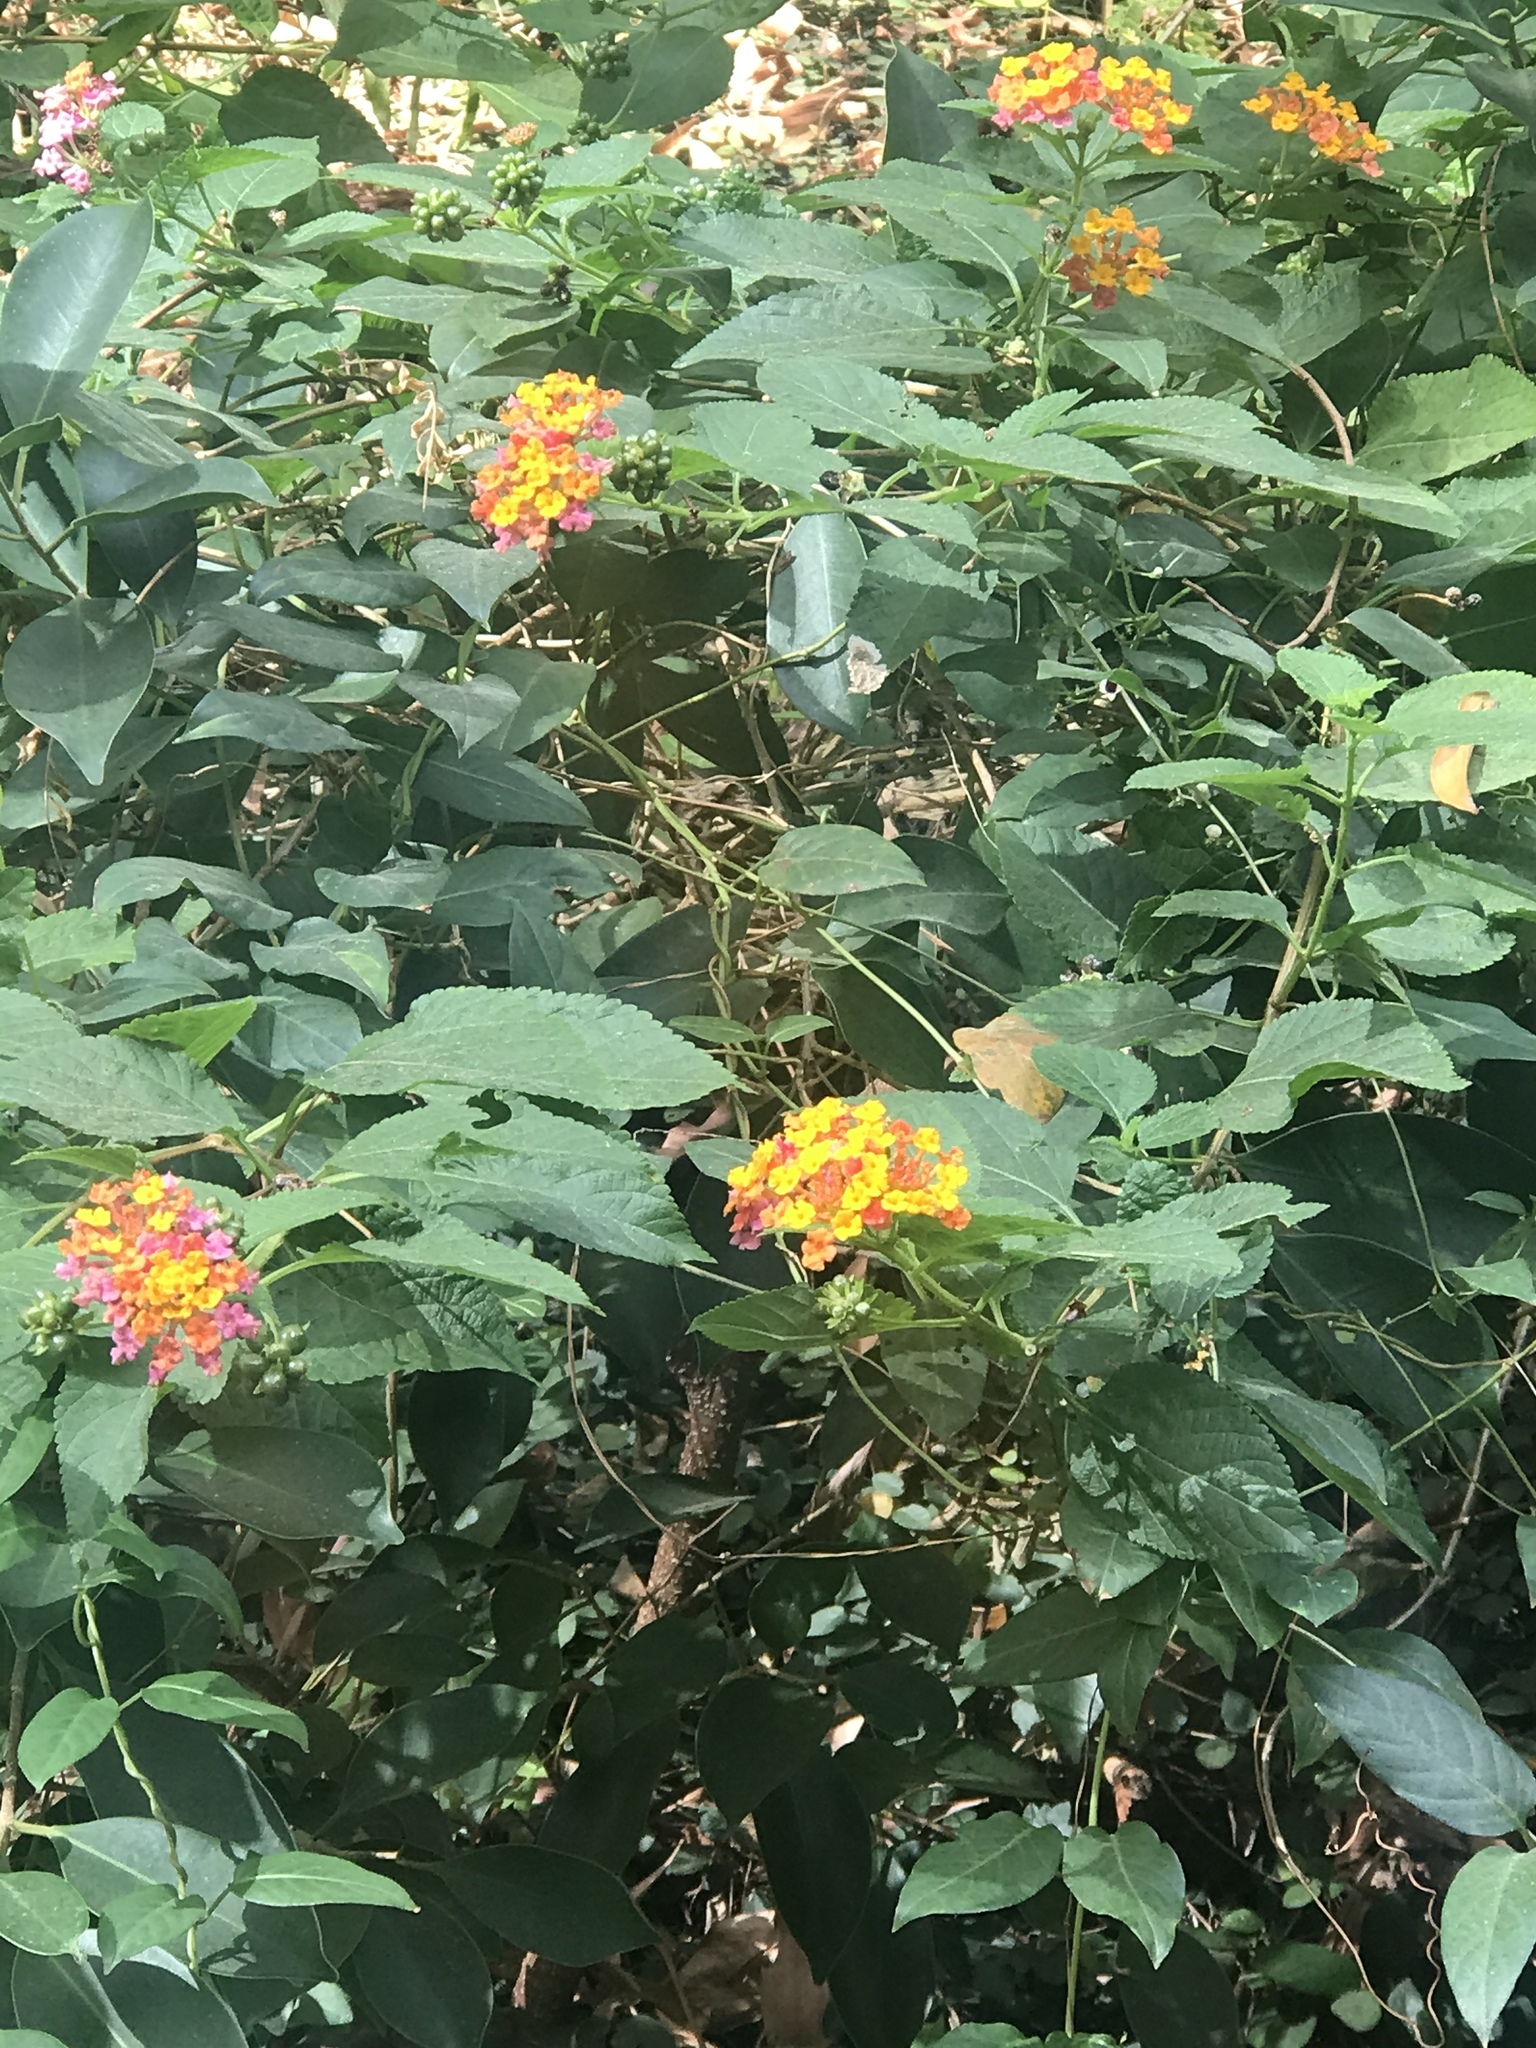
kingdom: Plantae
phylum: Tracheophyta
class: Magnoliopsida
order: Lamiales
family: Verbenaceae
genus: Lantana
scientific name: Lantana camara
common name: Lantana
